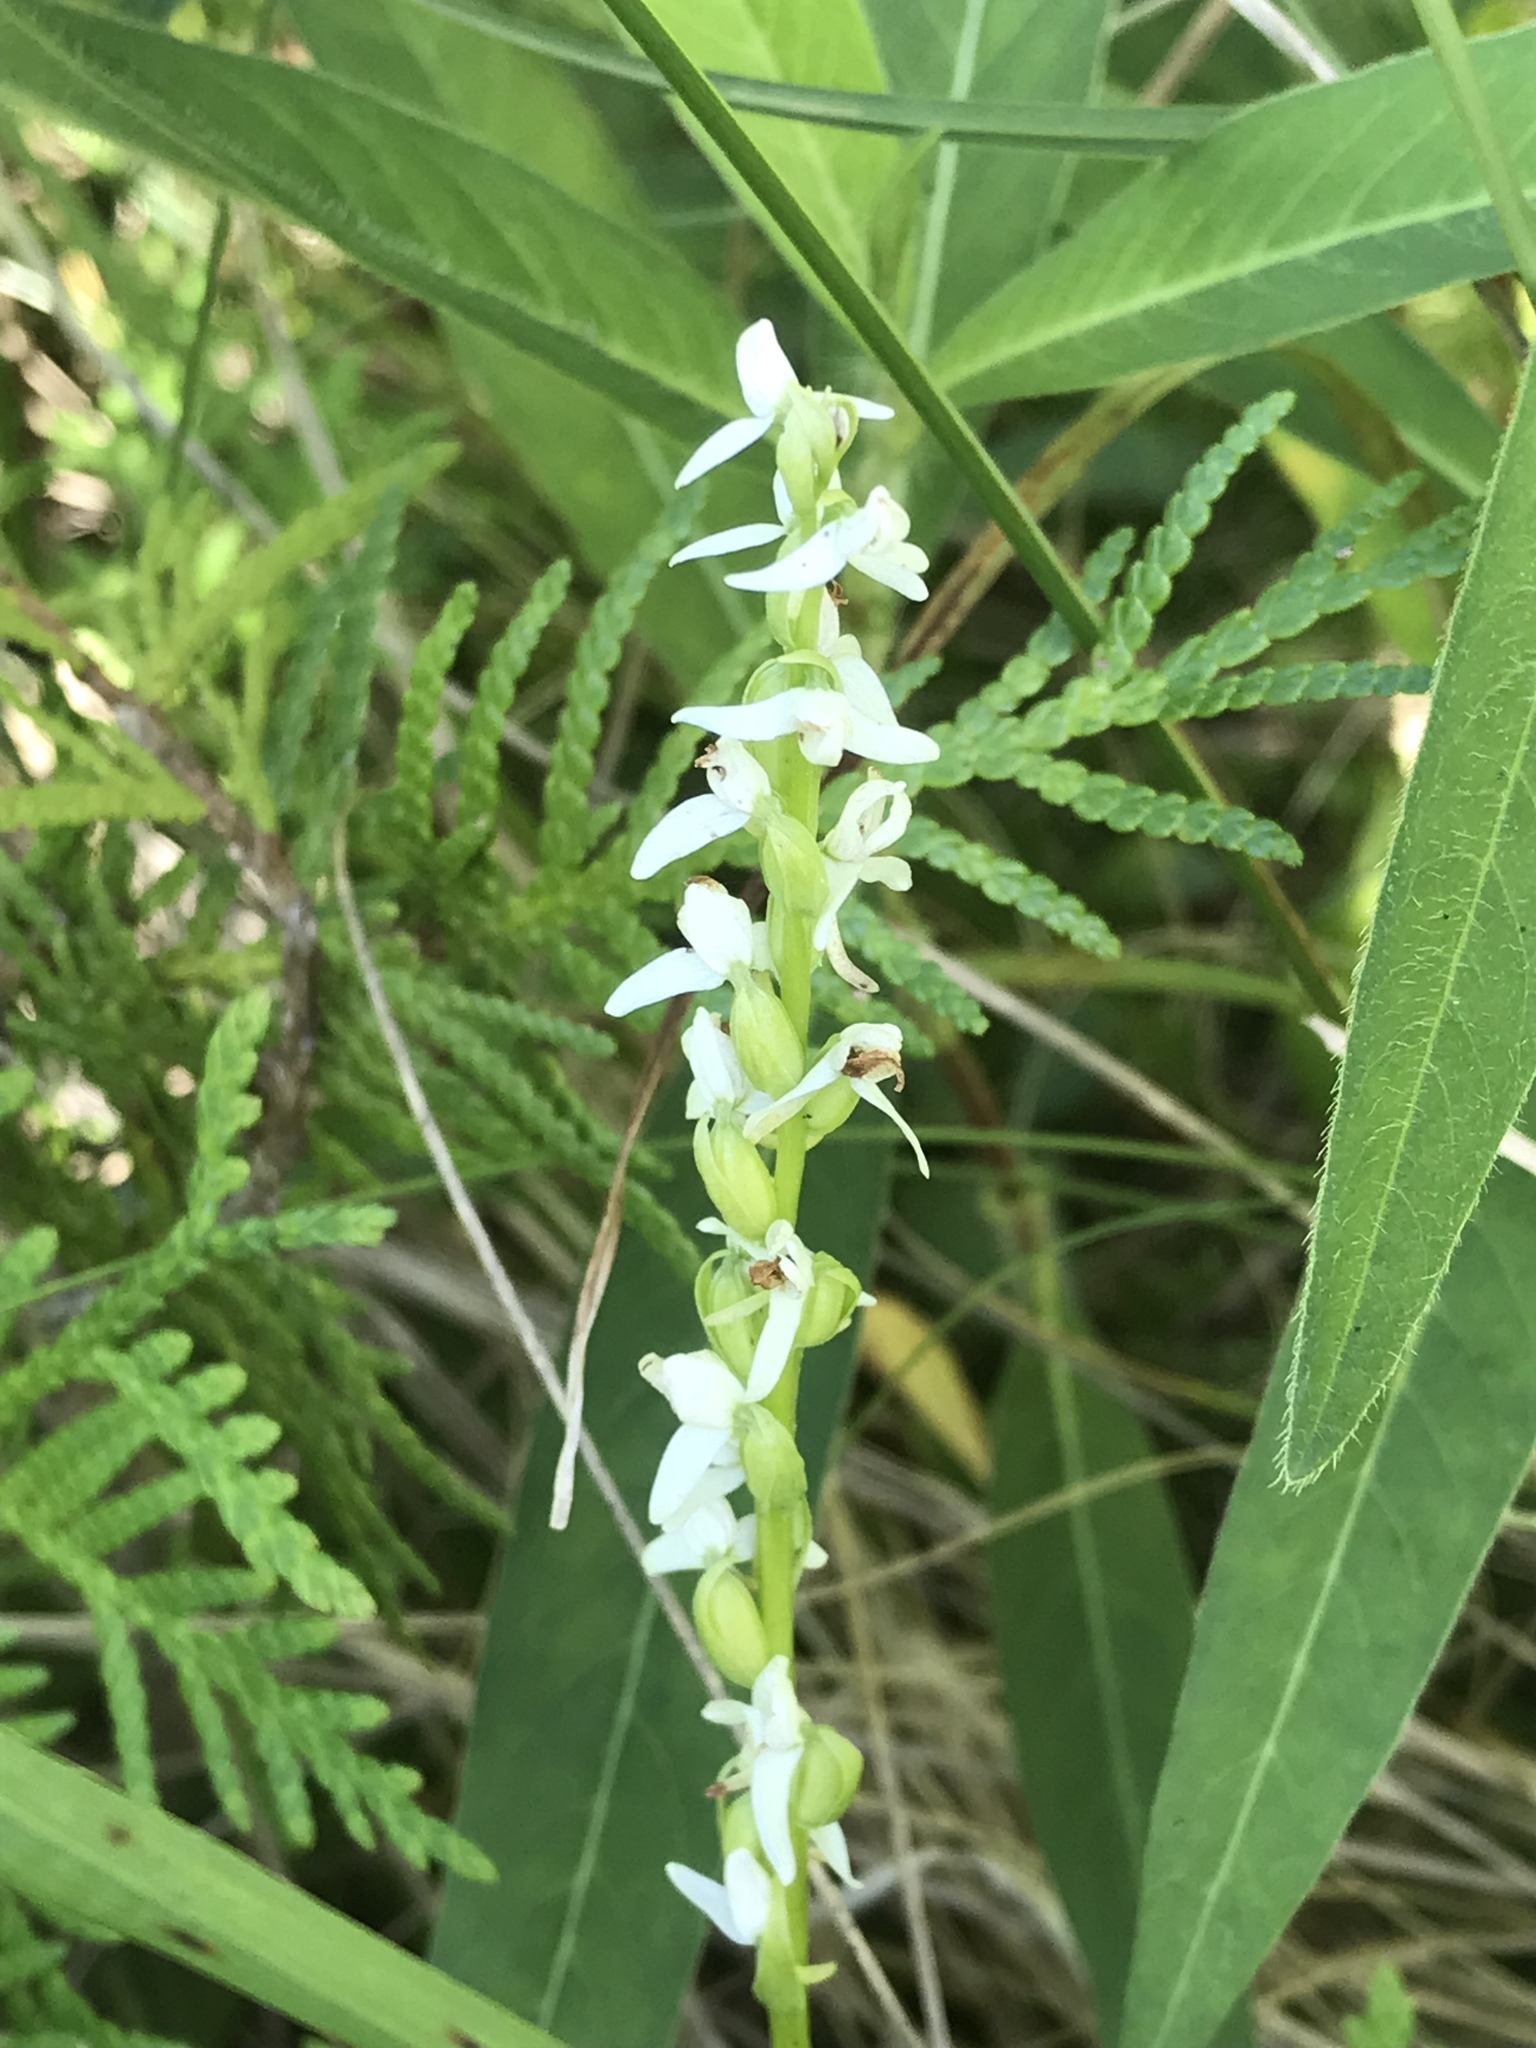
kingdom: Plantae
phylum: Tracheophyta
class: Liliopsida
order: Asparagales
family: Orchidaceae
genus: Platanthera
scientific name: Platanthera dilatata
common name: Bog candles
